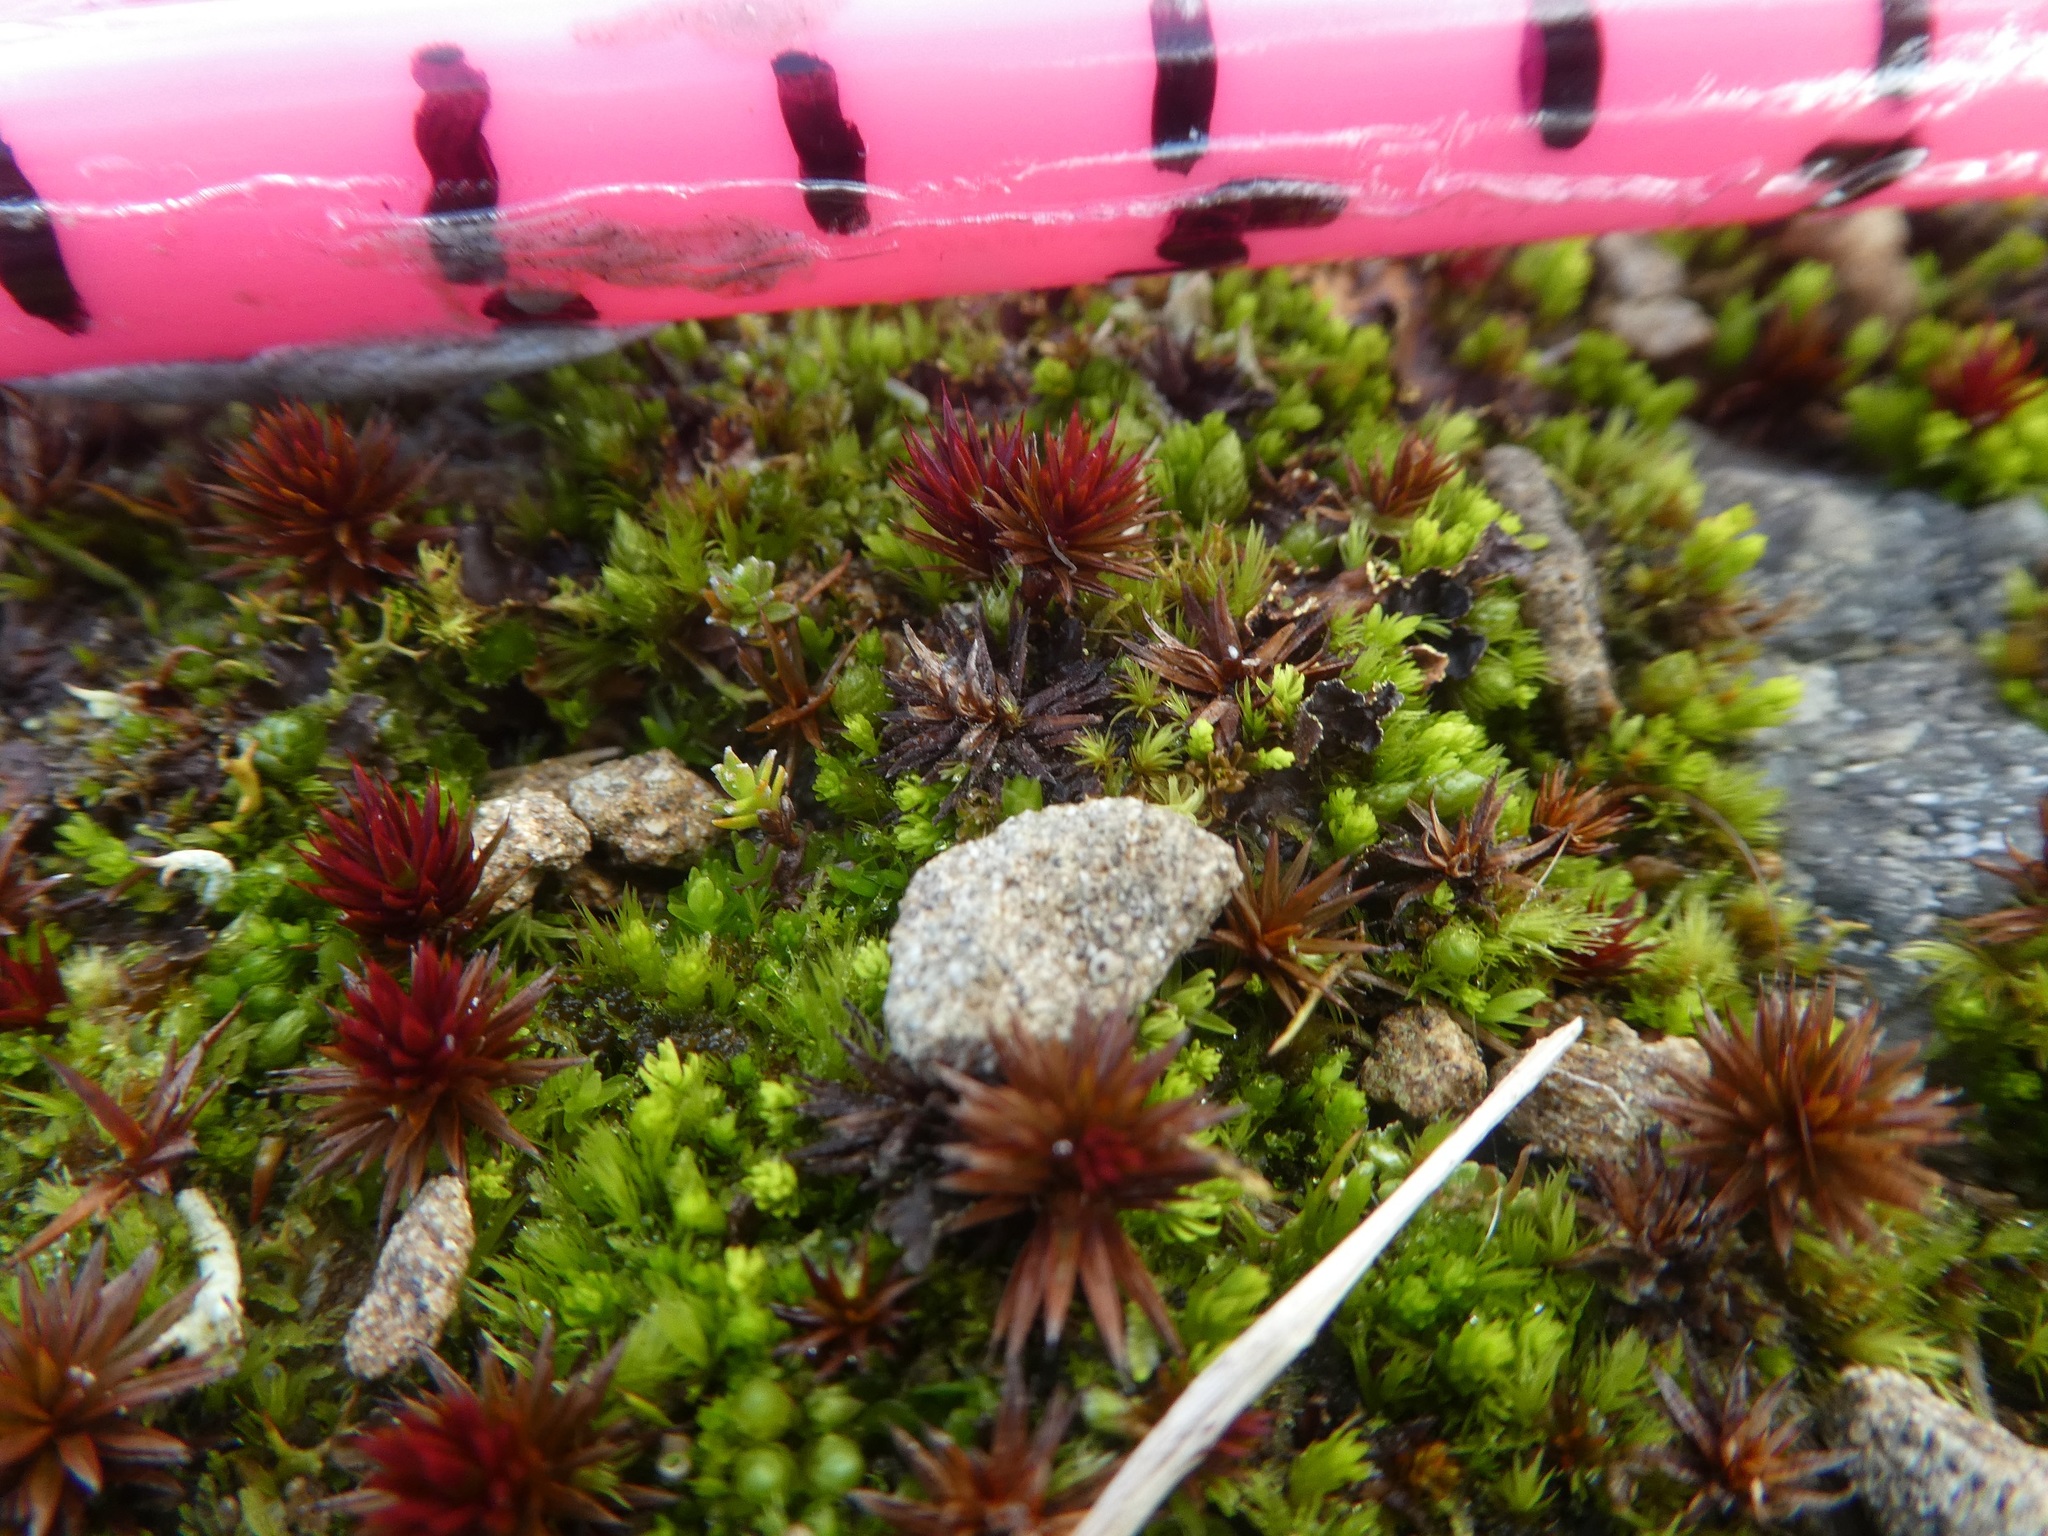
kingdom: Plantae
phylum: Bryophyta
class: Polytrichopsida
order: Polytrichales
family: Polytrichaceae
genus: Polytrichum
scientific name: Polytrichum juniperinum
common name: Juniper haircap moss
